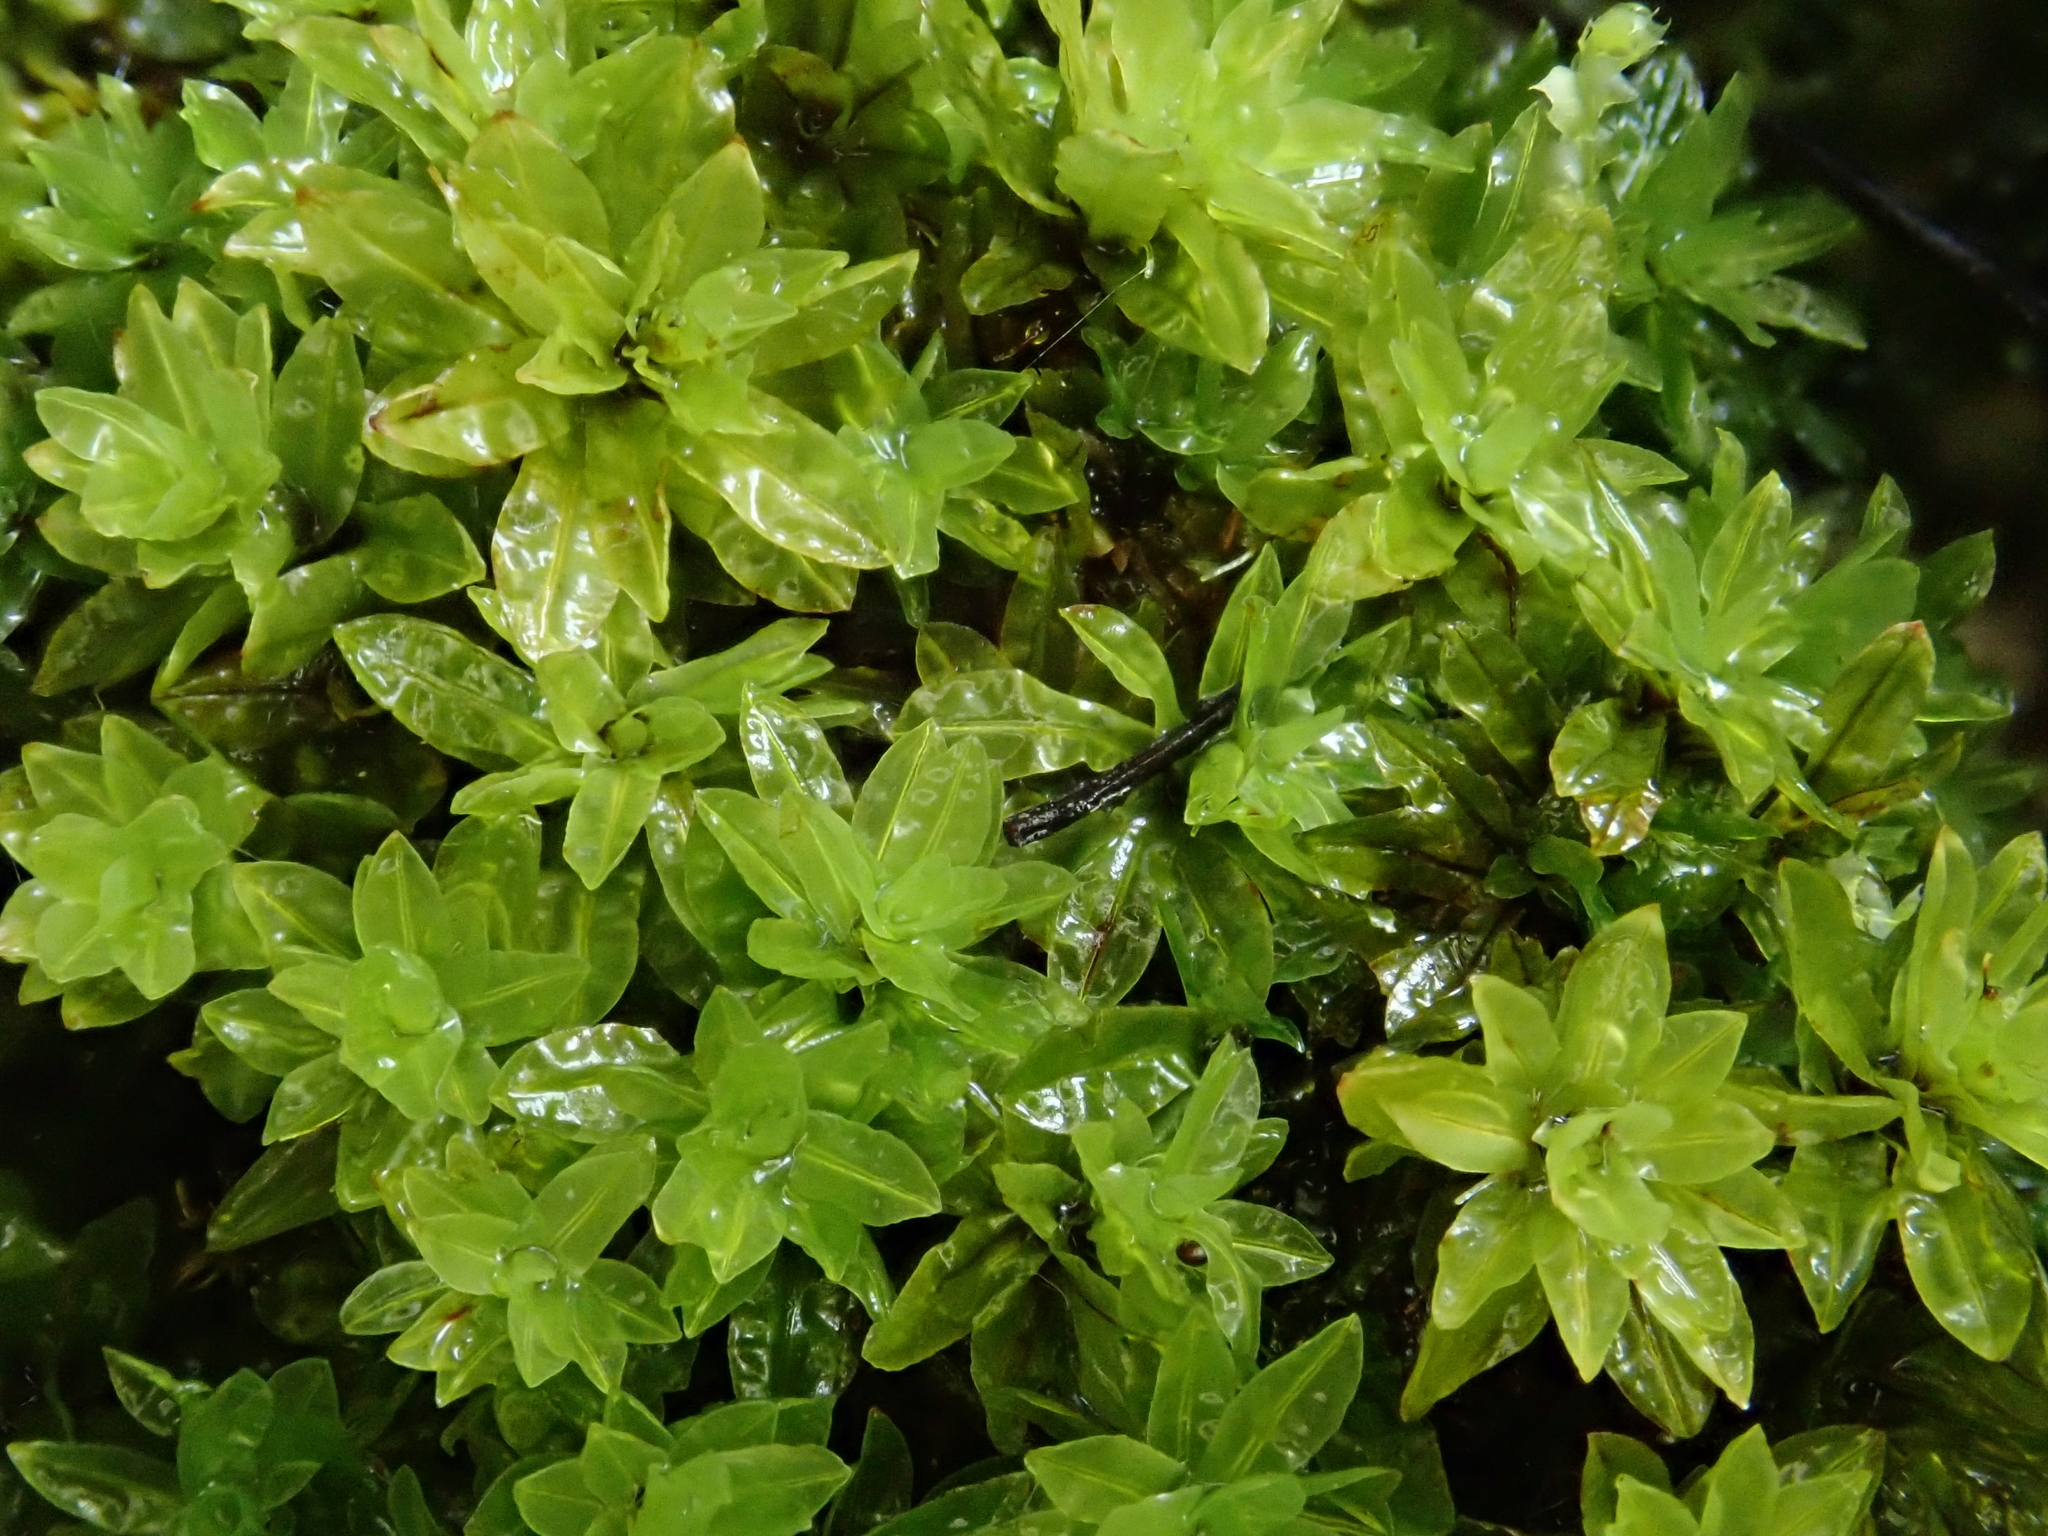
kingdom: Plantae
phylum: Bryophyta
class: Bryopsida
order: Encalyptales
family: Encalyptaceae
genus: Encalypta
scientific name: Encalypta streptocarpa
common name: Spiral extinguisher-moss
